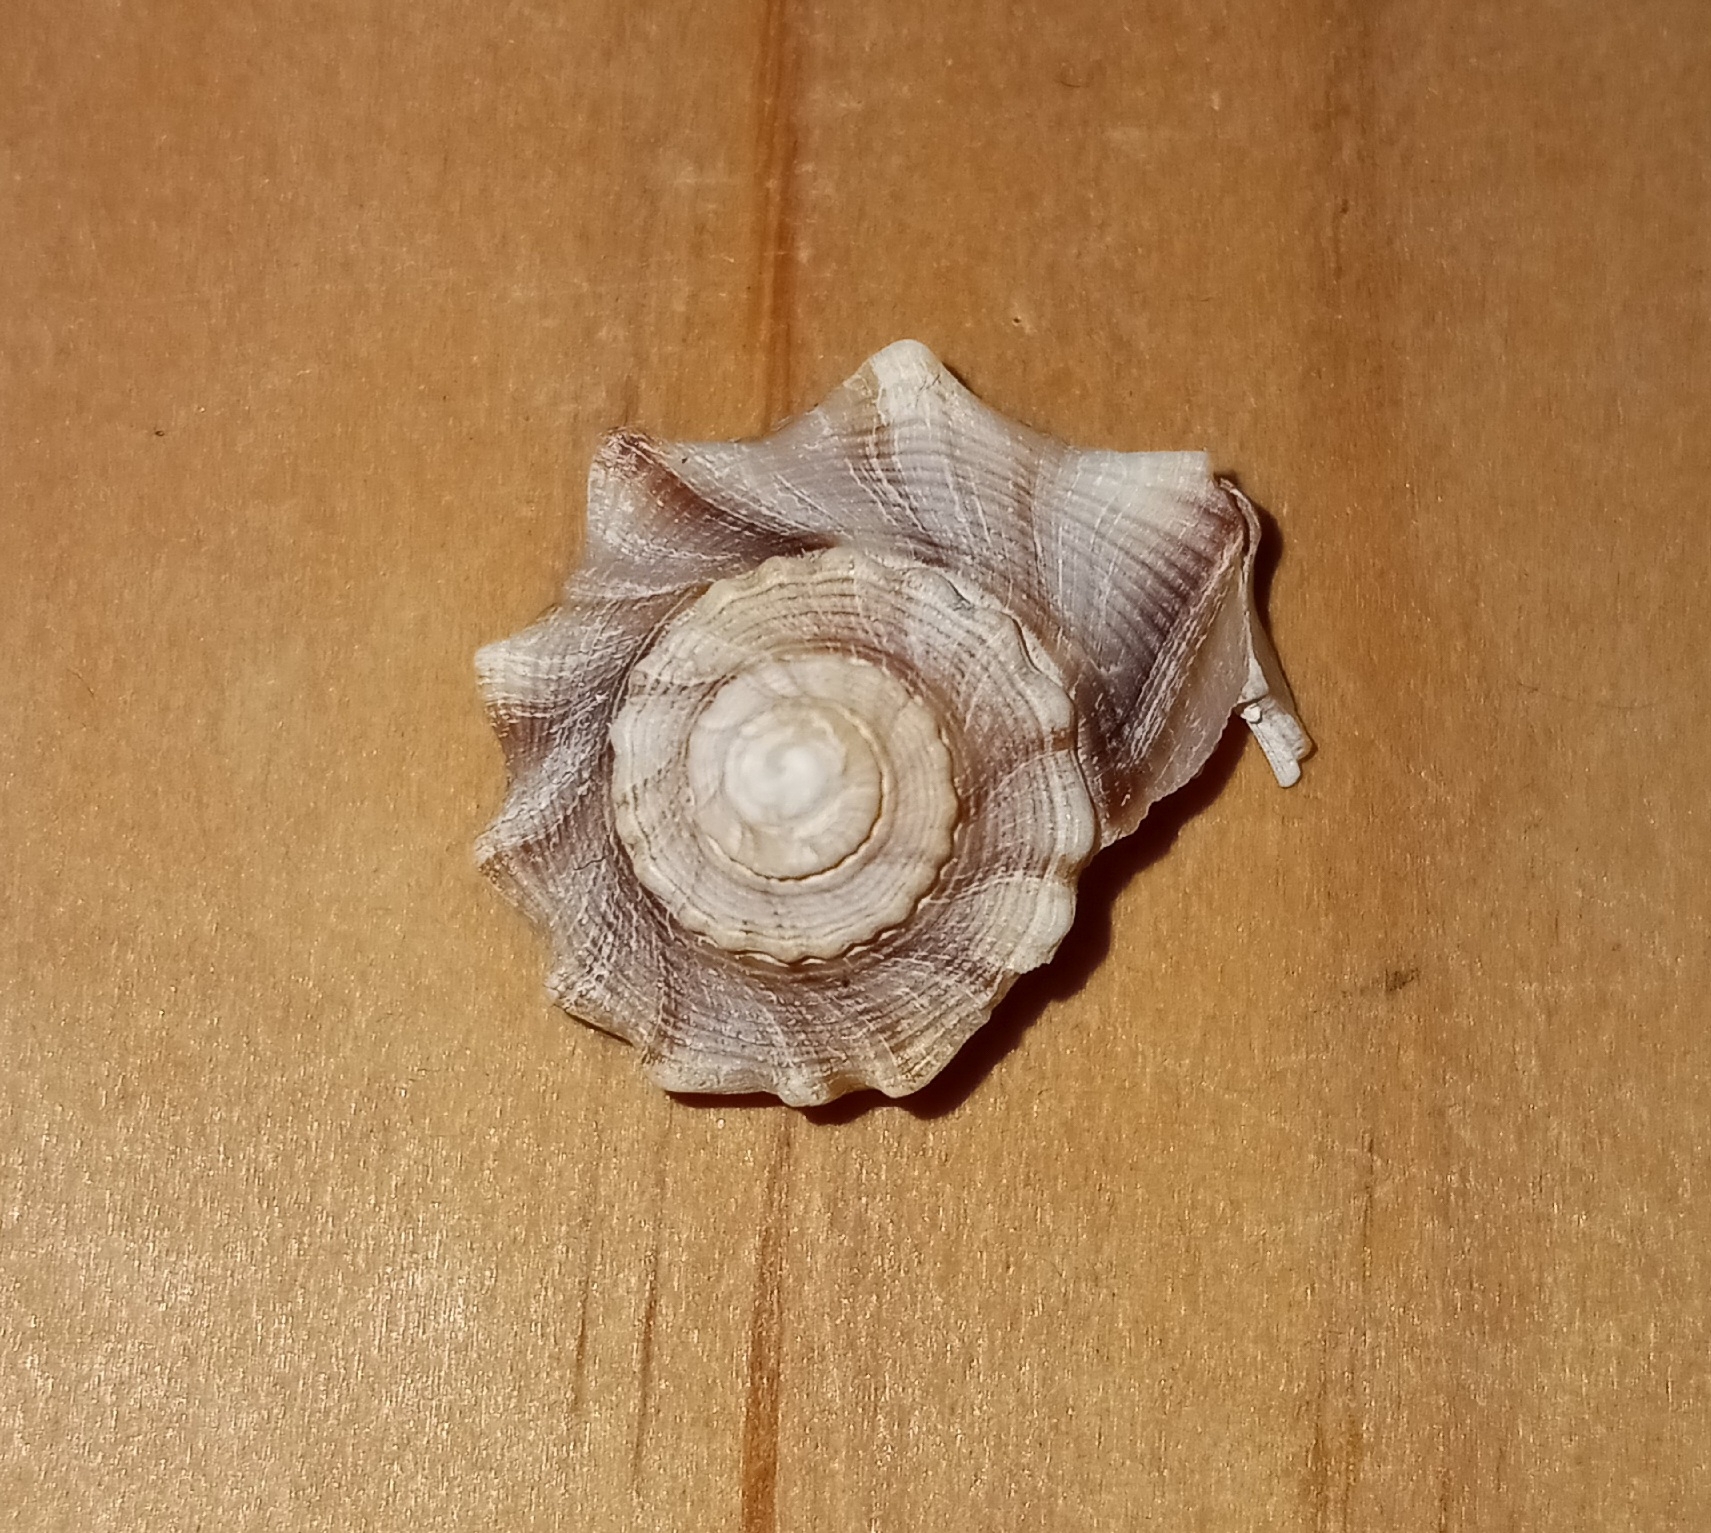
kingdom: Animalia
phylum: Mollusca
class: Gastropoda
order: Neogastropoda
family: Busyconidae
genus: Busycon
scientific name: Busycon carica
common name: Knobbed whelk
